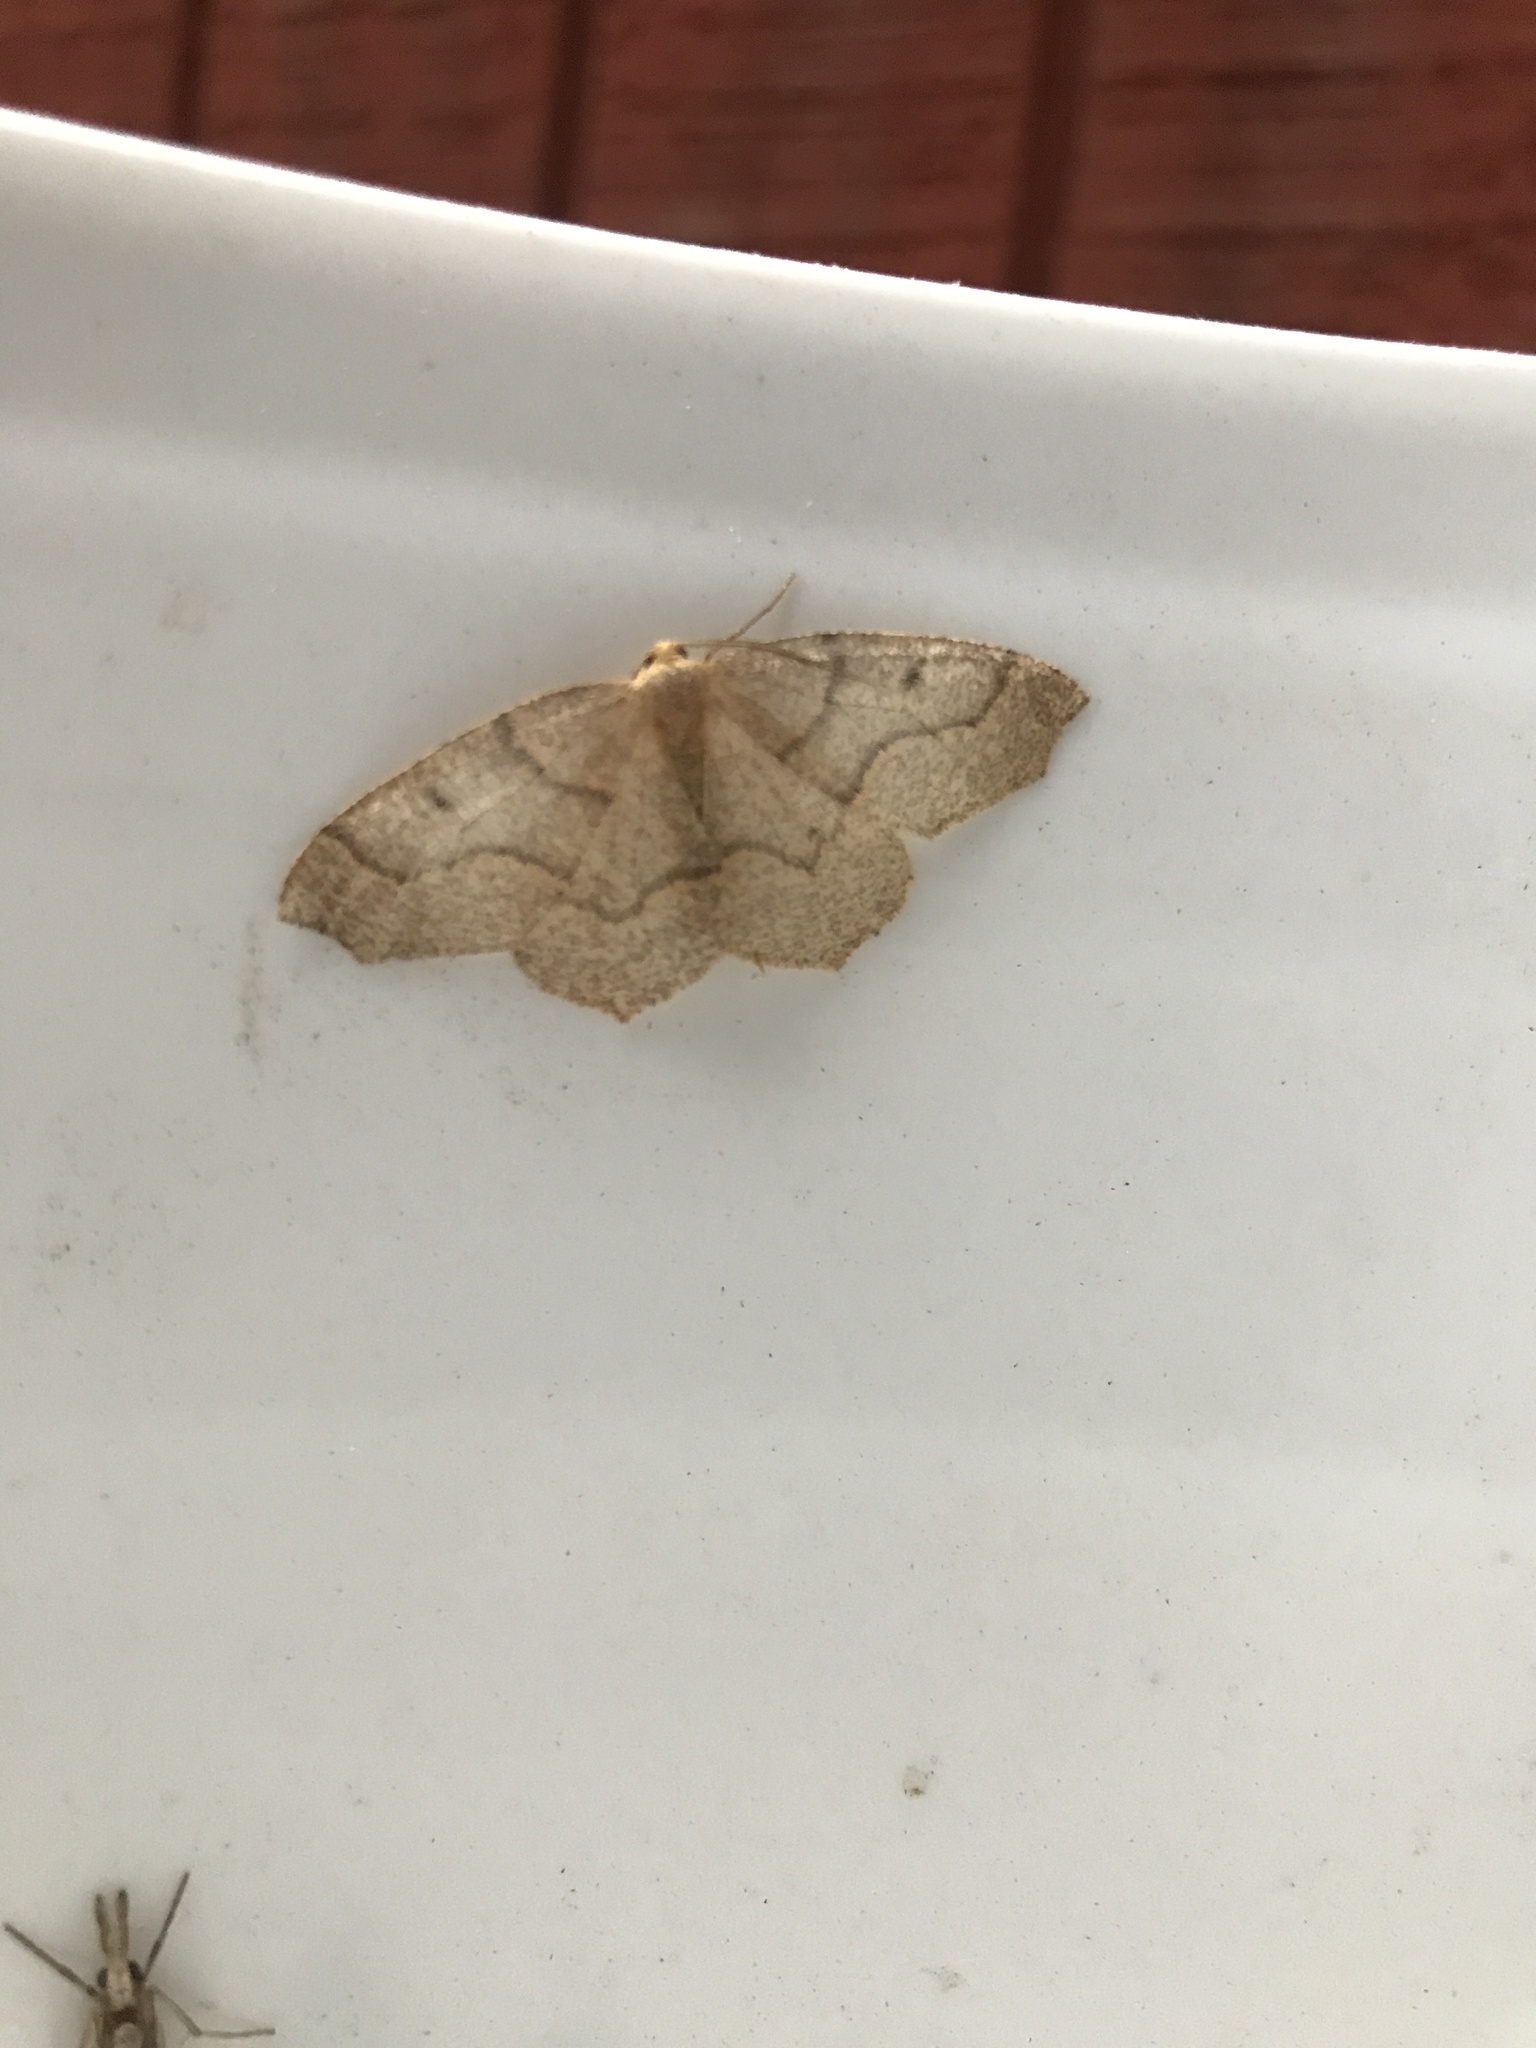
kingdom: Animalia
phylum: Arthropoda
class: Insecta
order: Lepidoptera
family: Geometridae
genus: Lambdina
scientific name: Lambdina fiscellaria
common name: Hemlock looper
